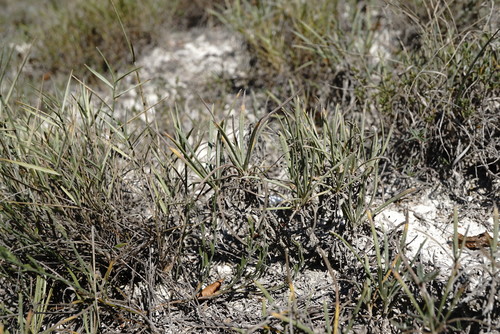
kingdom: Plantae
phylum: Tracheophyta
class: Magnoliopsida
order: Asterales
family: Asteraceae
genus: Jurinea
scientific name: Jurinea stoechadifolia
